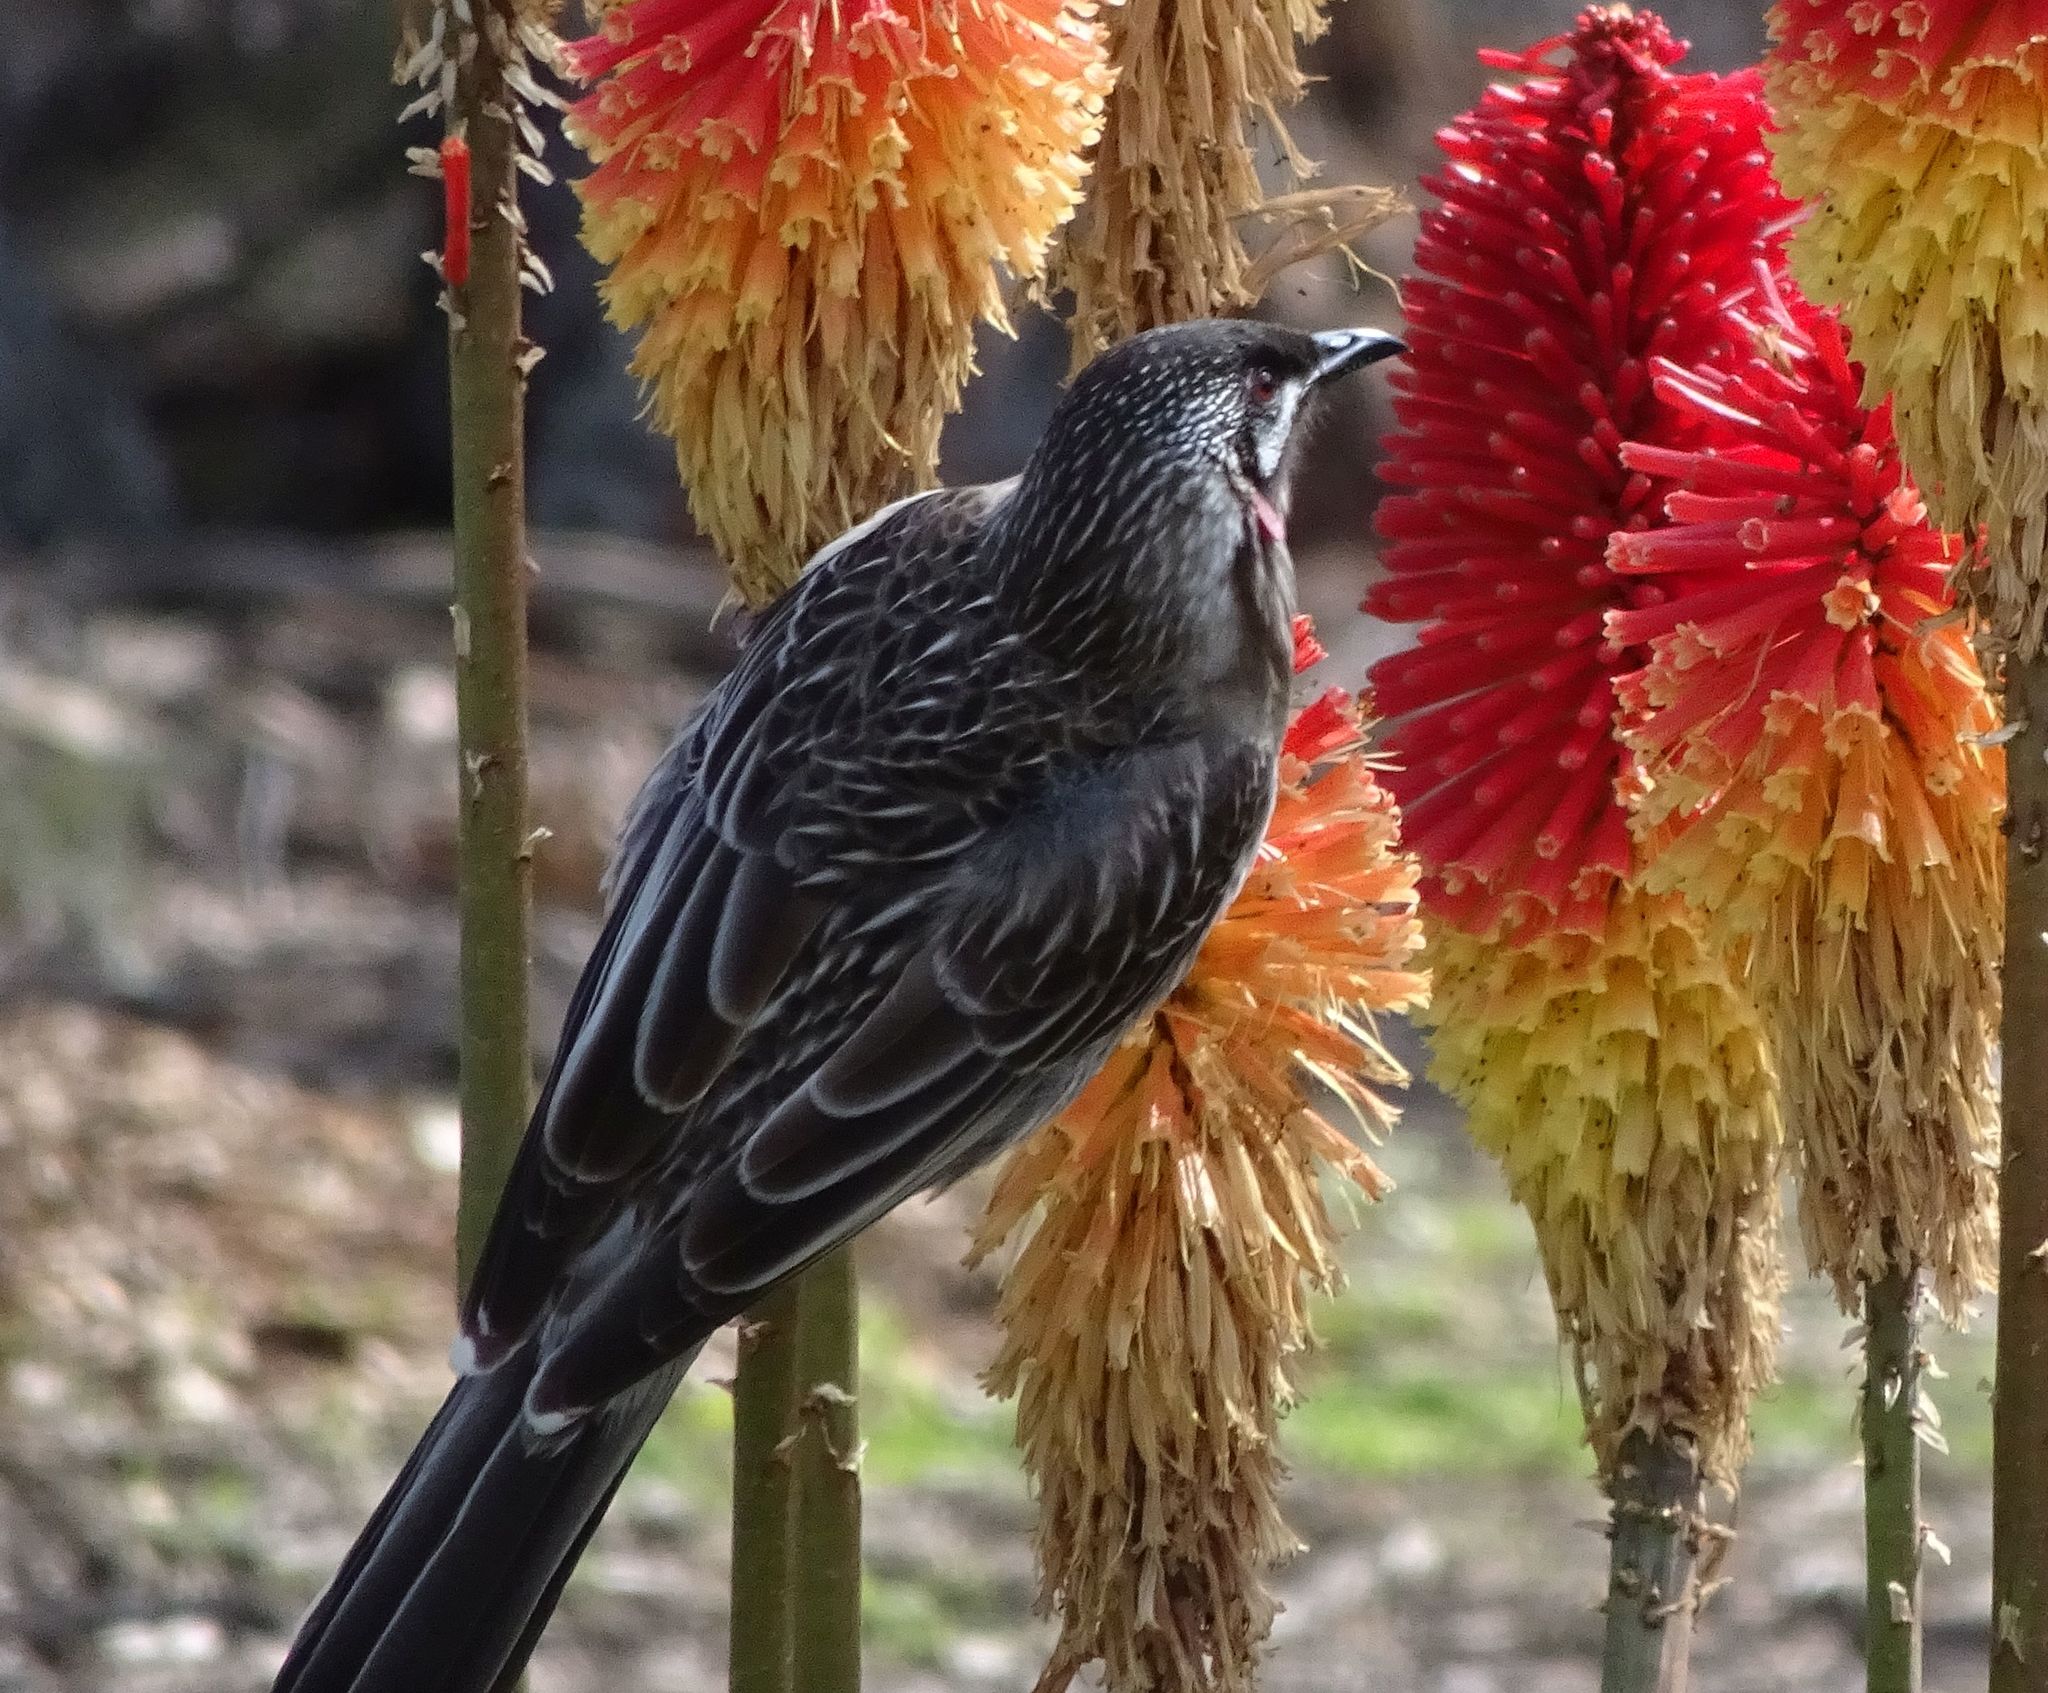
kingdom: Animalia
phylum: Chordata
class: Aves
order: Passeriformes
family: Meliphagidae
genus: Anthochaera
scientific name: Anthochaera carunculata
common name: Red wattlebird
